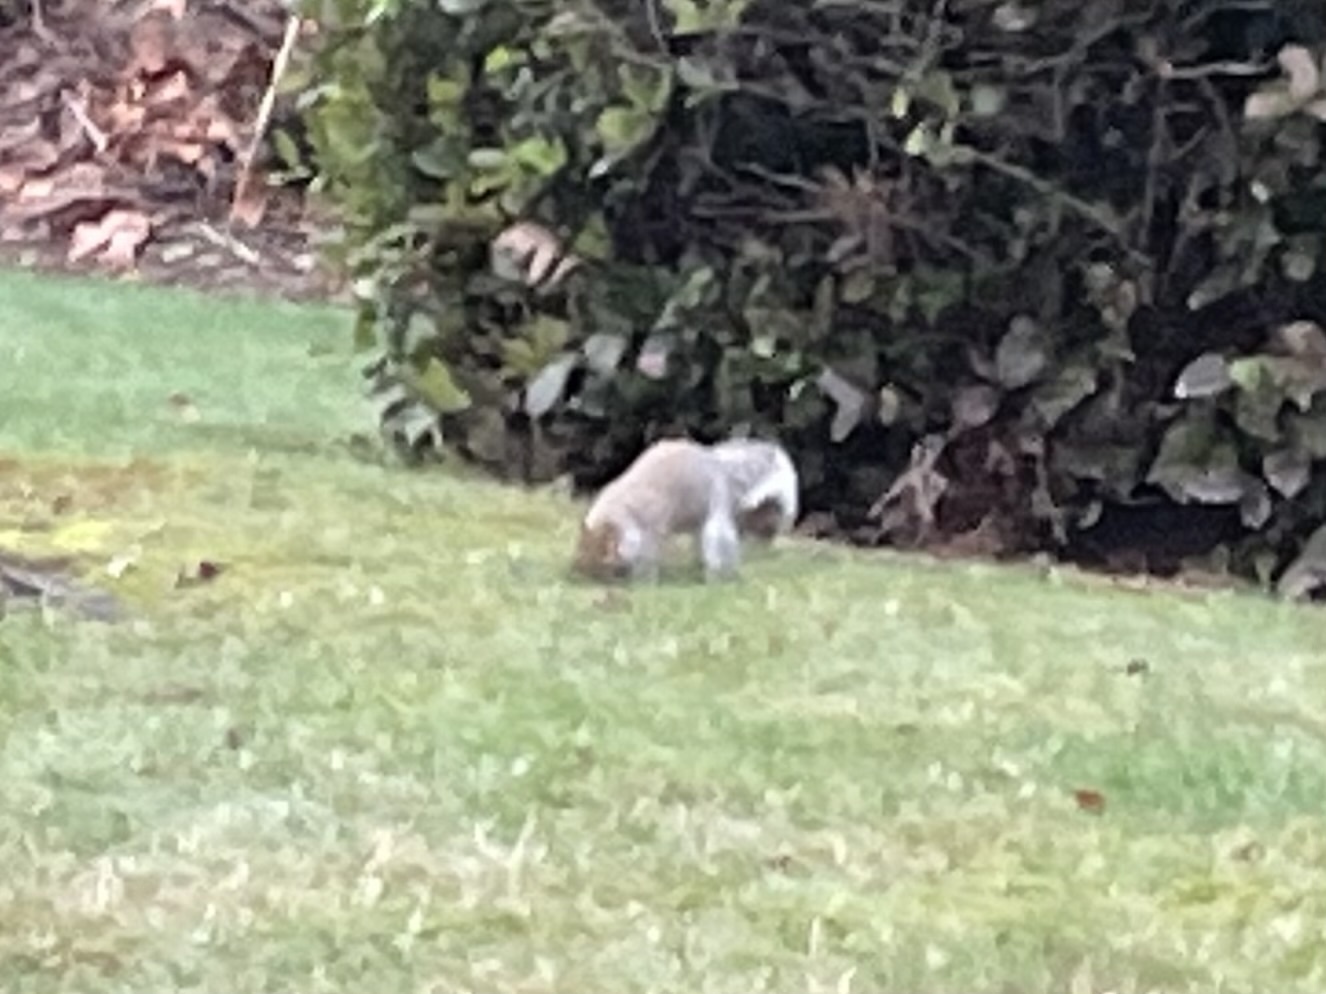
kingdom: Animalia
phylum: Chordata
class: Mammalia
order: Rodentia
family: Sciuridae
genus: Sciurus
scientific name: Sciurus carolinensis
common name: Eastern gray squirrel
